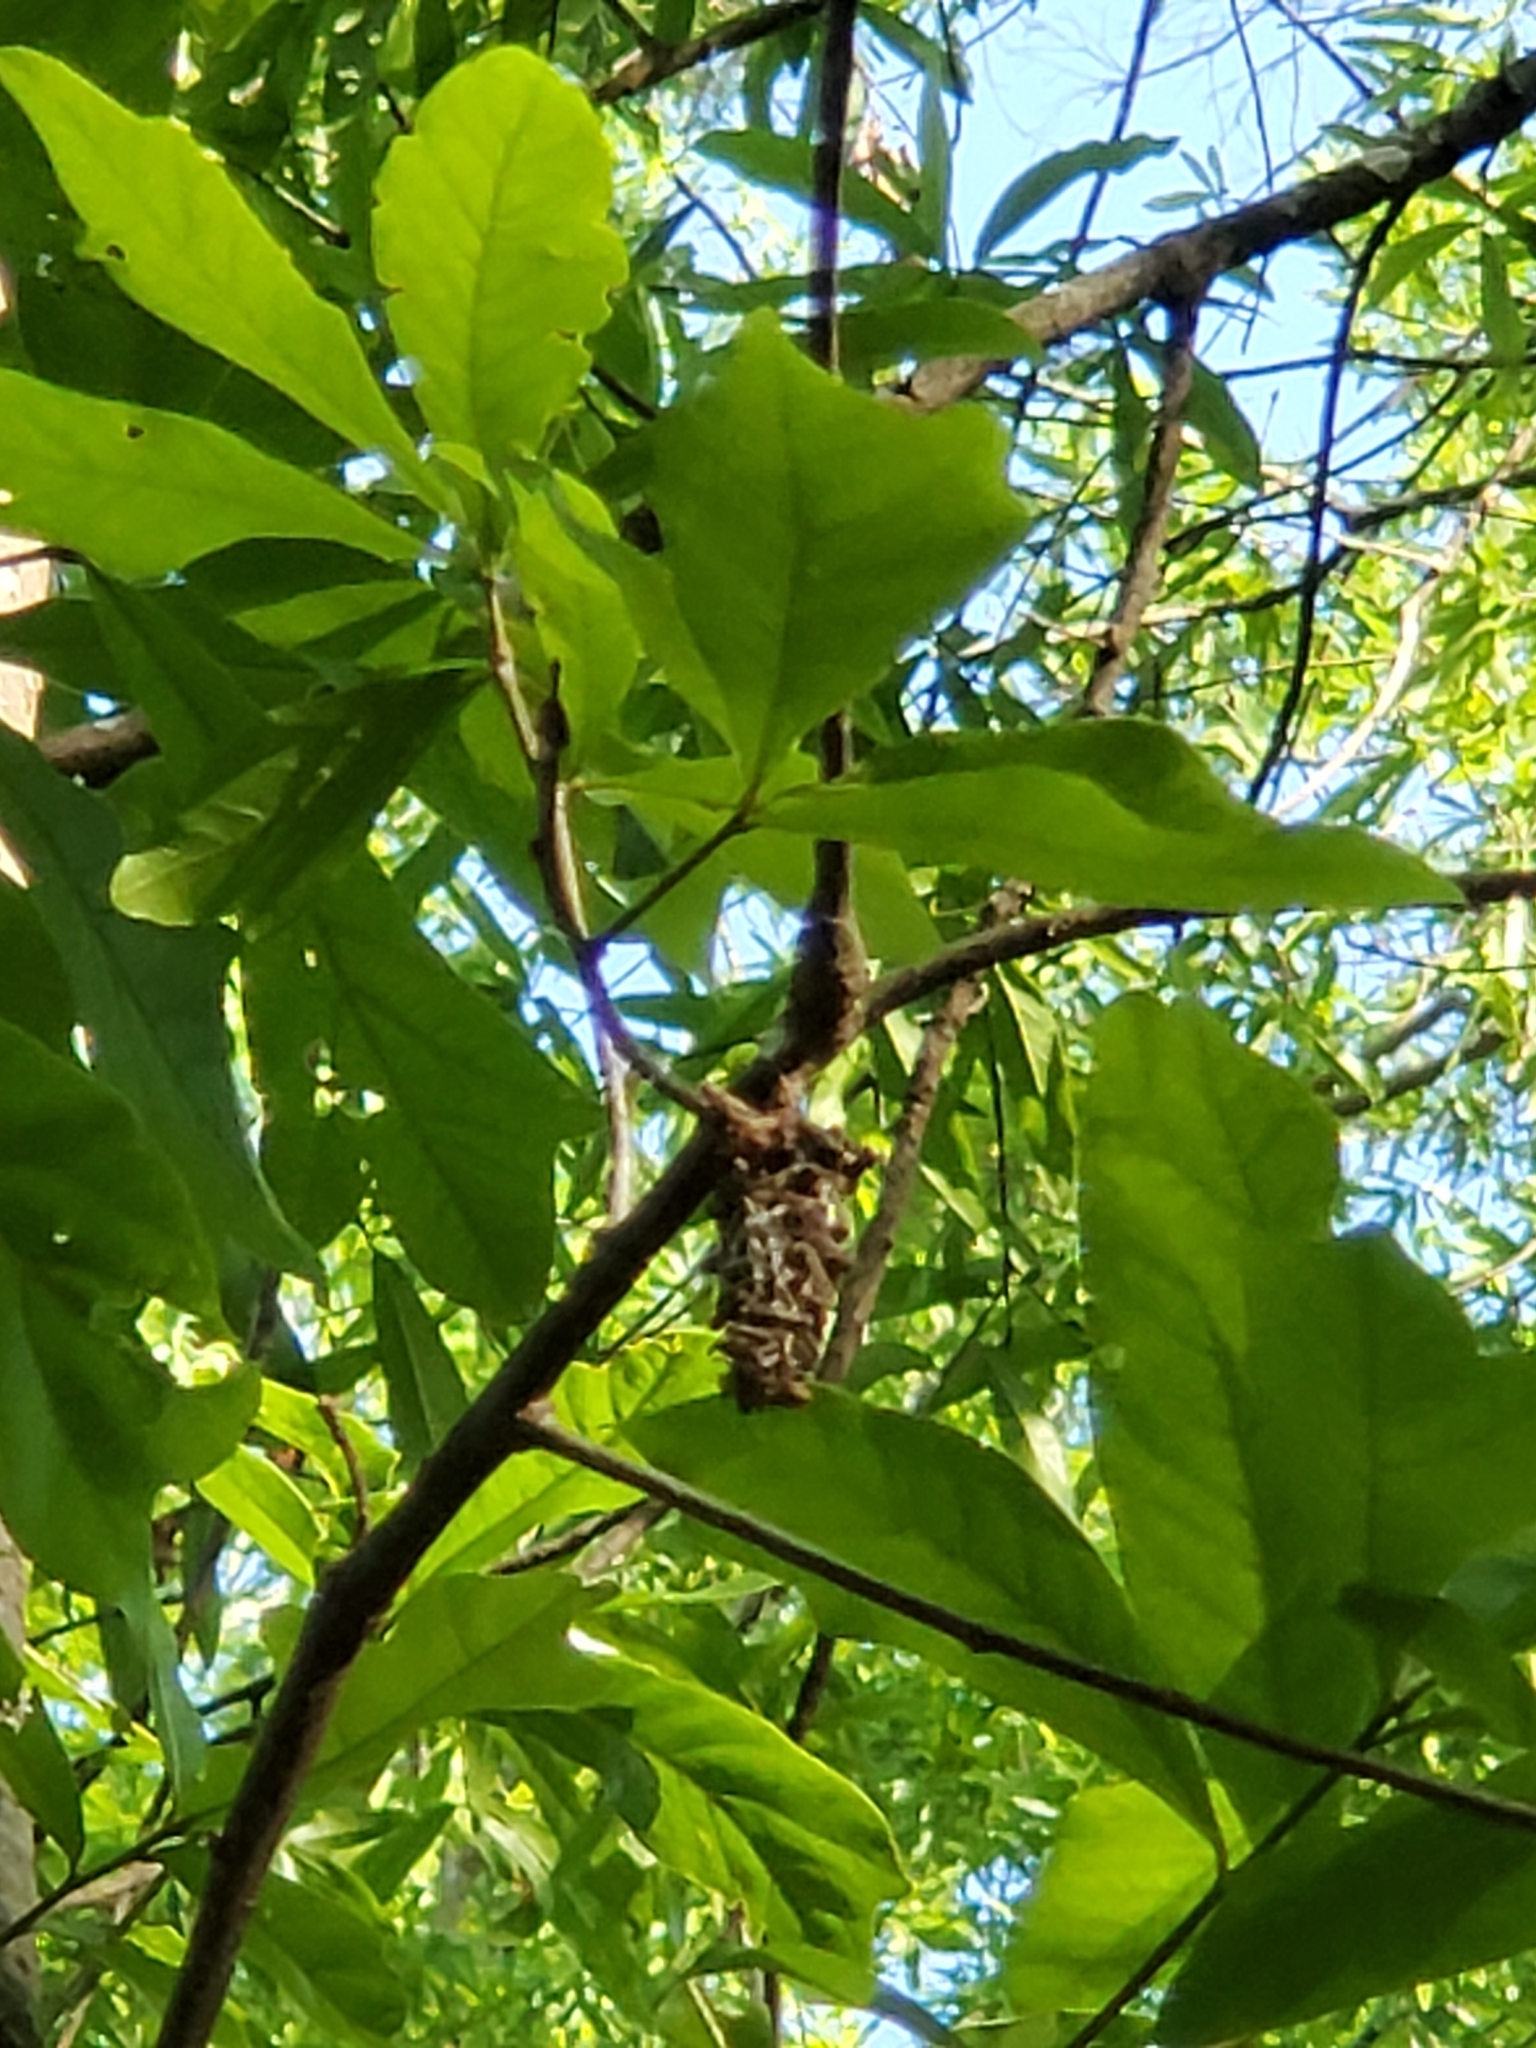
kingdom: Animalia
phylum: Arthropoda
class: Insecta
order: Lepidoptera
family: Psychidae
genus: Oiketicus
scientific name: Oiketicus
